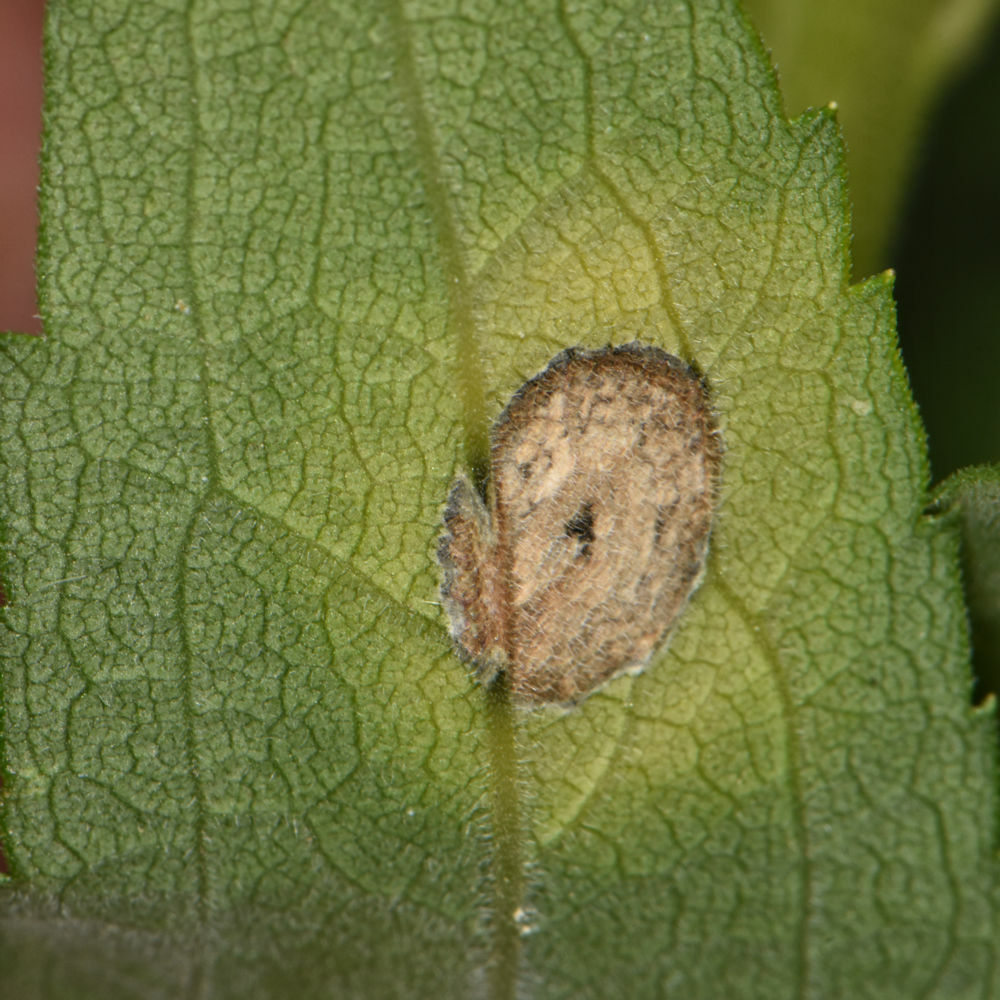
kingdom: Animalia
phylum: Arthropoda
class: Insecta
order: Diptera
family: Cecidomyiidae
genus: Asteromyia
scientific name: Asteromyia carbonifera
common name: Carbonifera goldenrod gall midge
